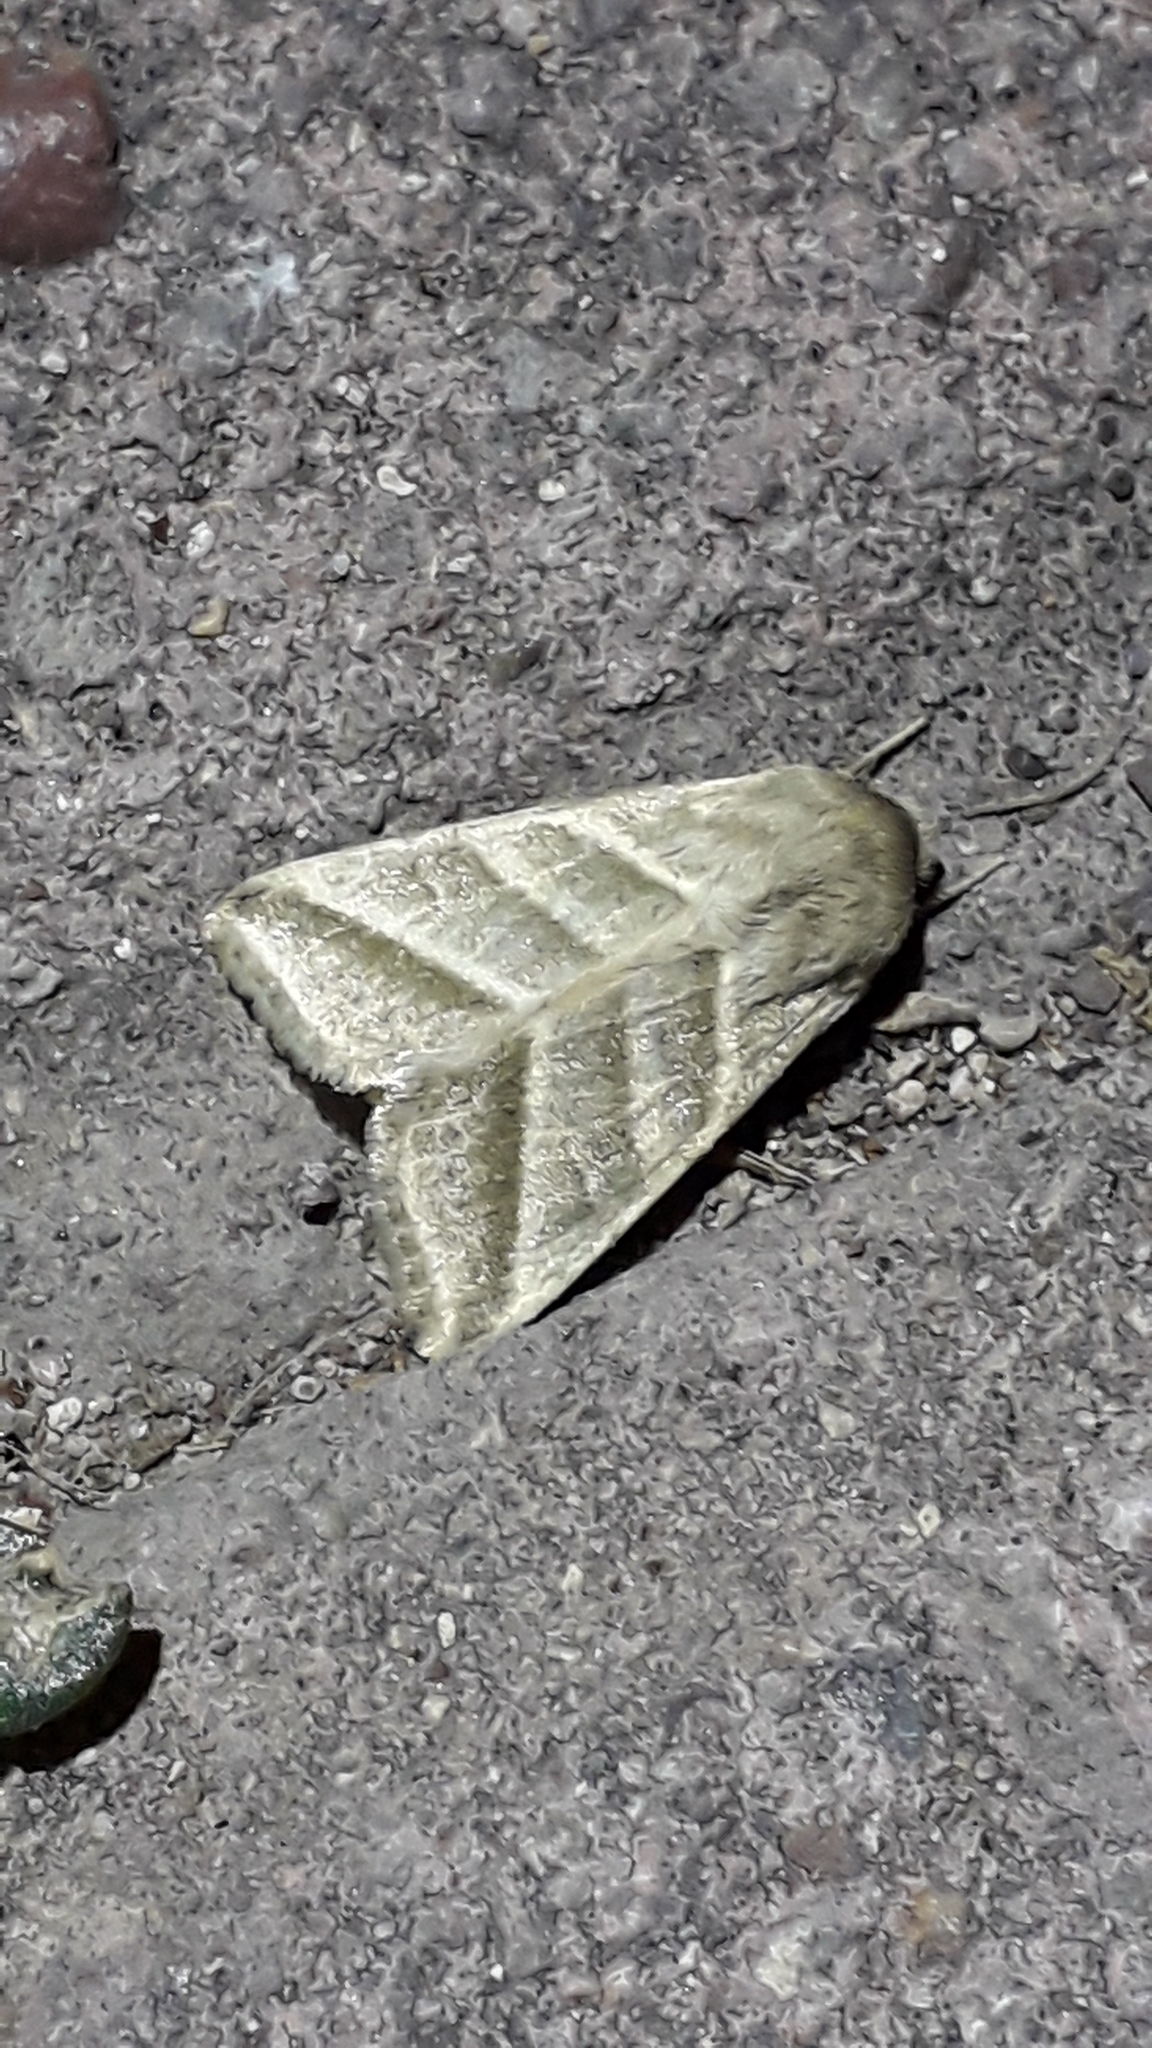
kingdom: Animalia
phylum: Arthropoda
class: Insecta
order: Lepidoptera
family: Noctuidae
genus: Chloridea
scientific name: Chloridea virescens
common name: Tobacco budworm
